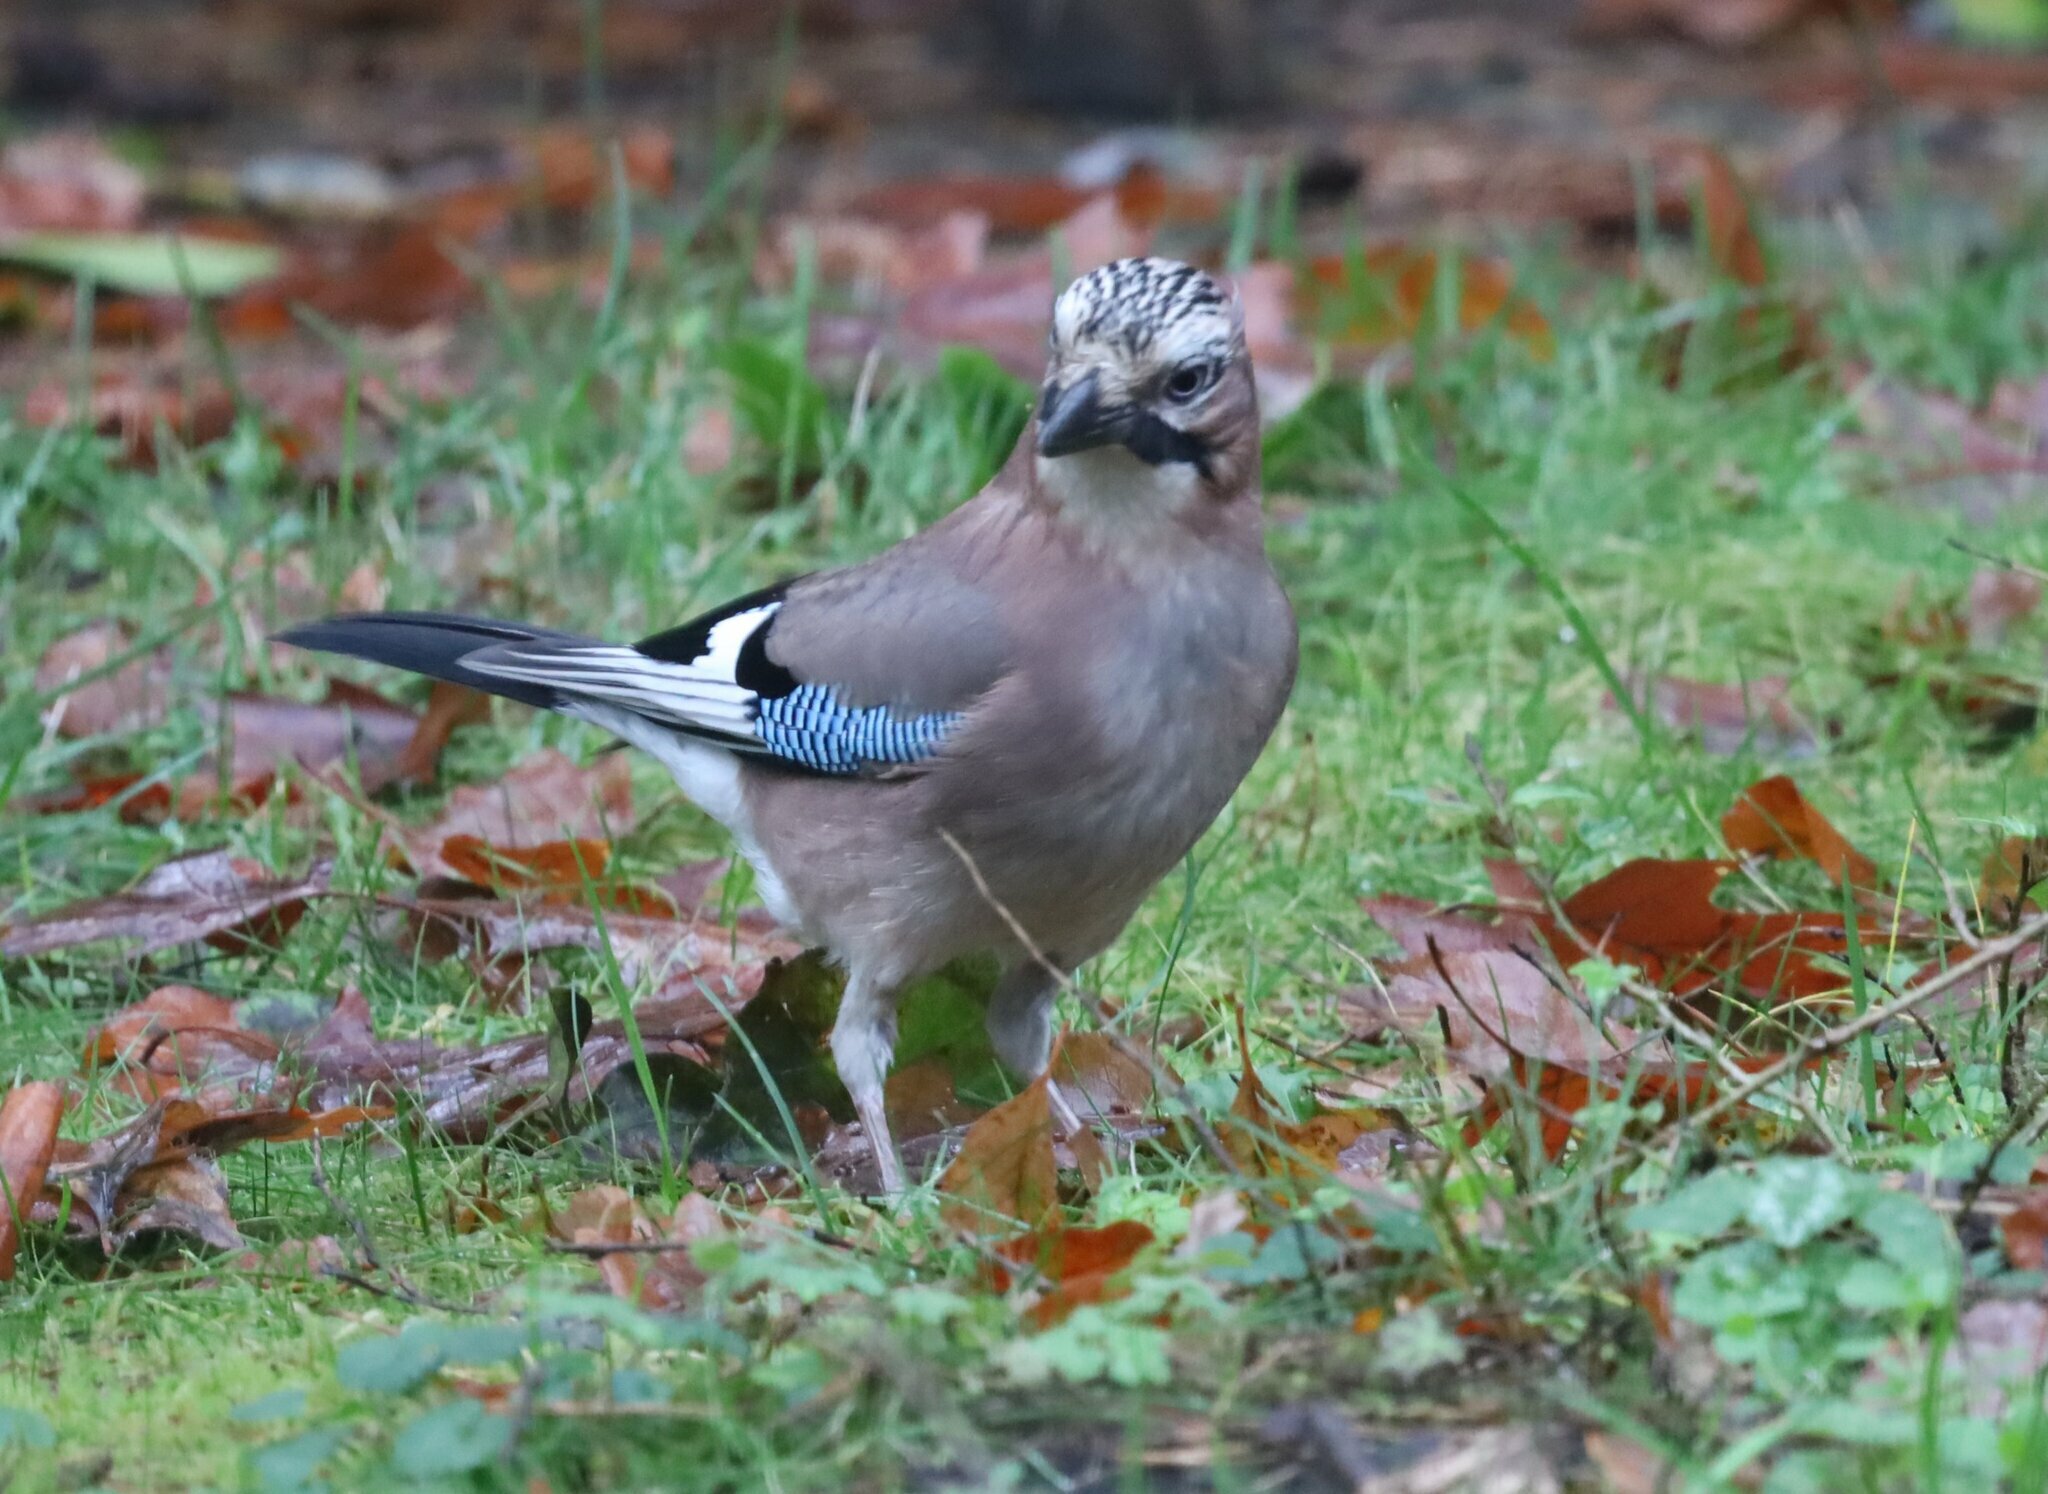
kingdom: Animalia
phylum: Chordata
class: Aves
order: Passeriformes
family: Corvidae
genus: Garrulus
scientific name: Garrulus glandarius
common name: Eurasian jay
